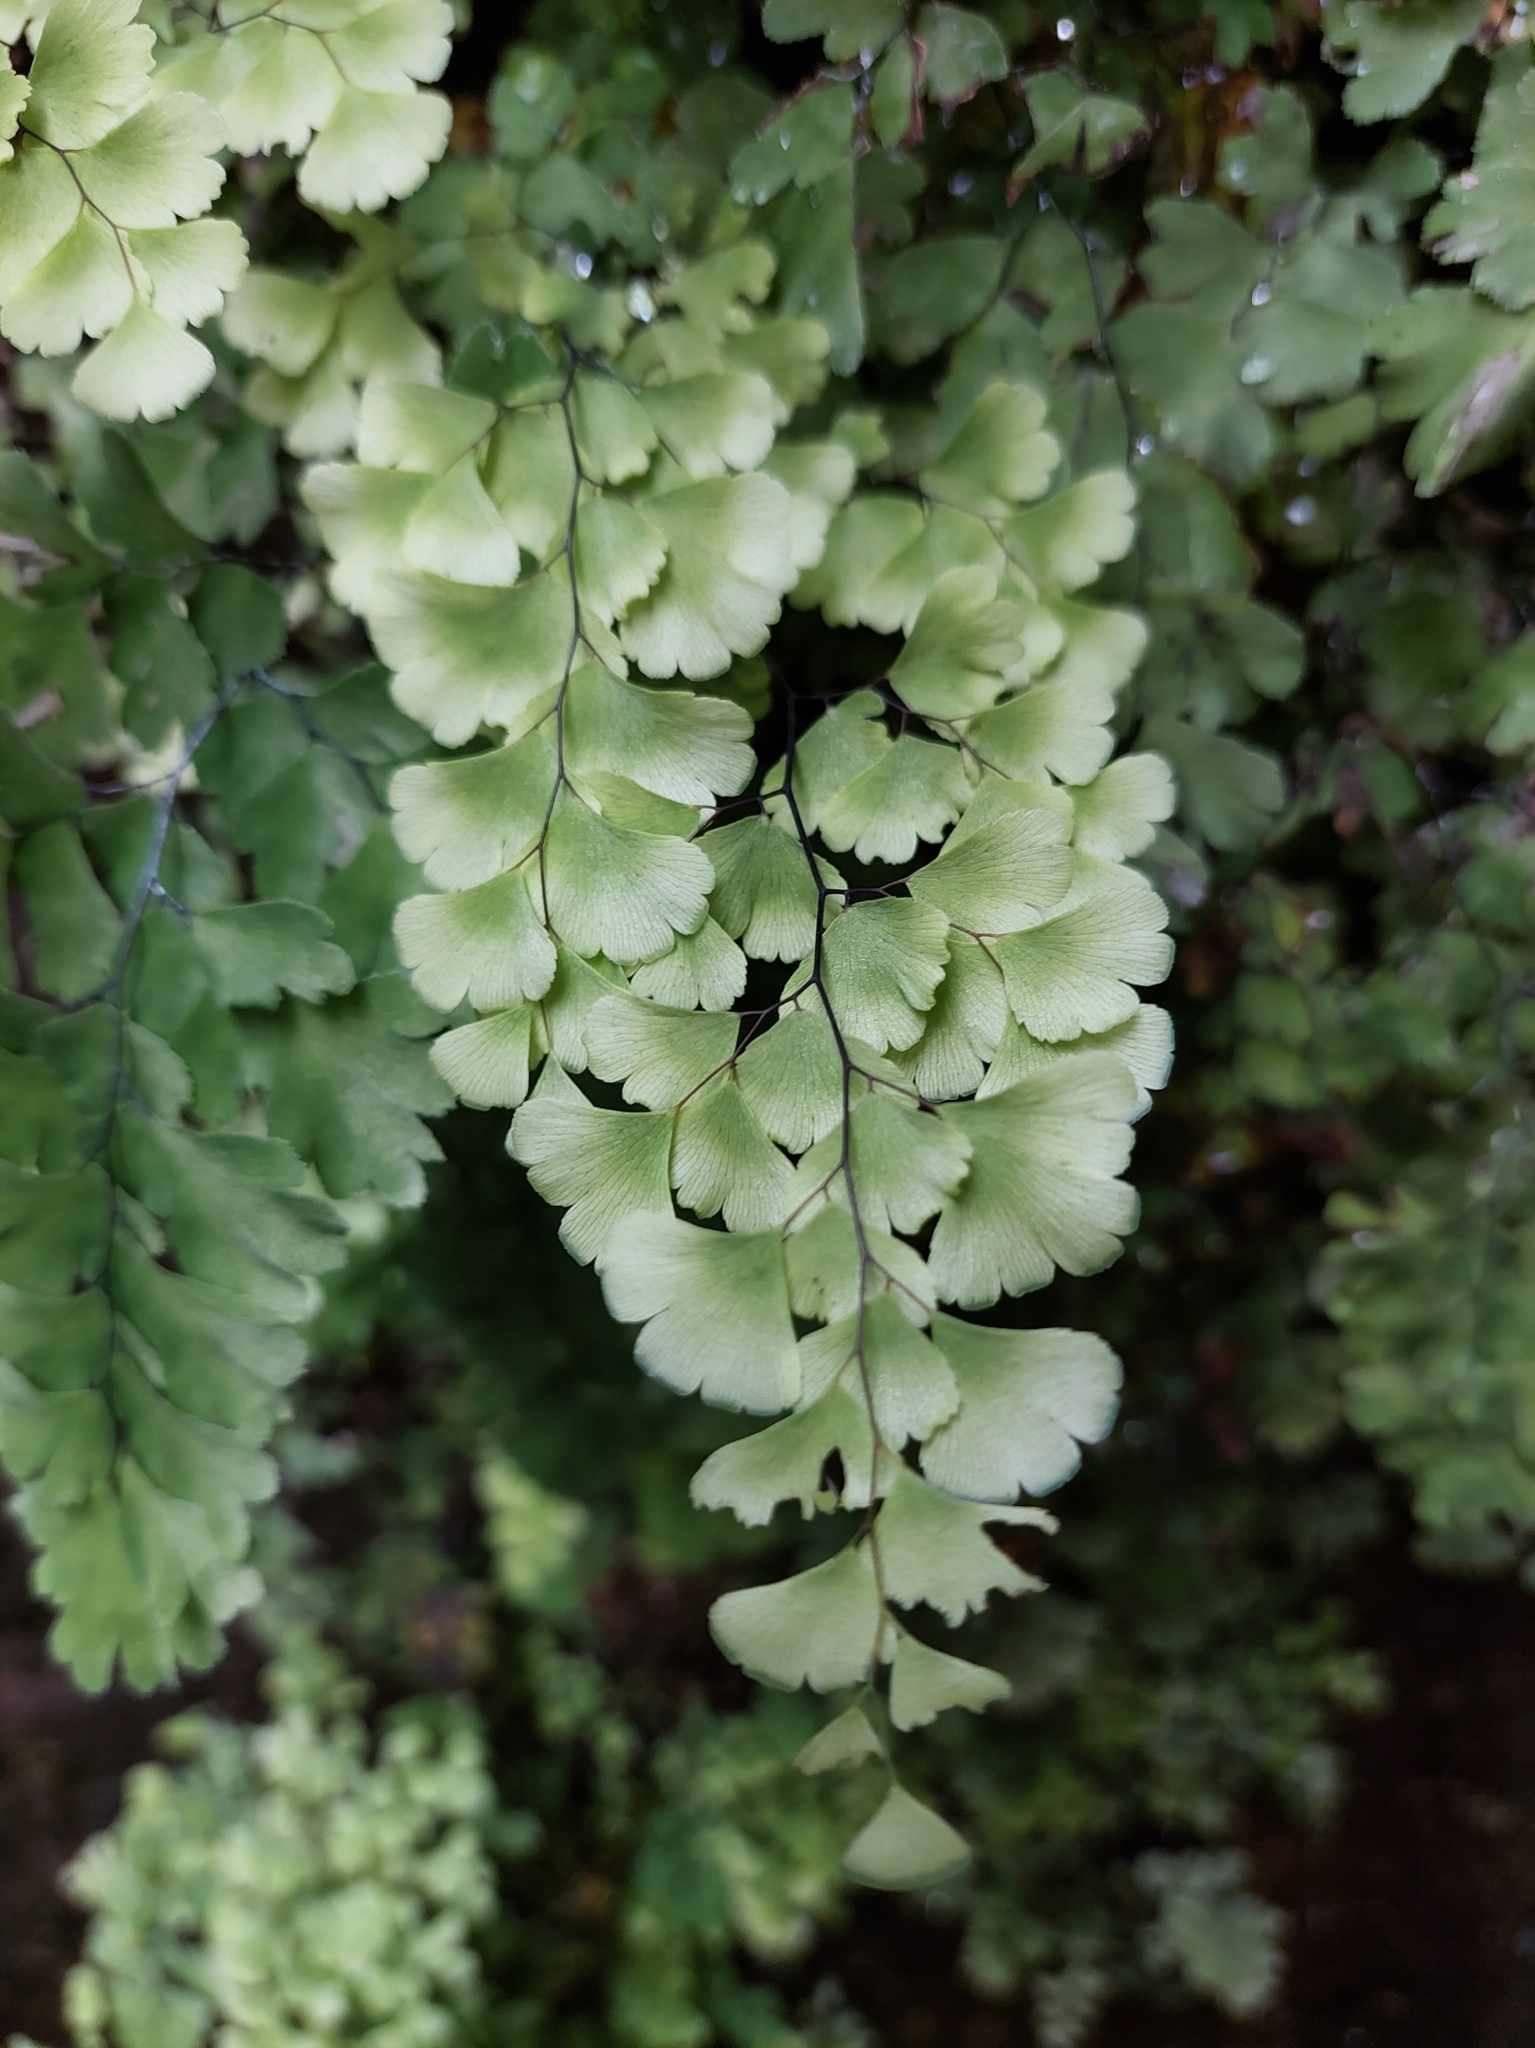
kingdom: Plantae
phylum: Tracheophyta
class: Polypodiopsida
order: Polypodiales
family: Pteridaceae
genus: Adiantum
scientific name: Adiantum capillus-veneris
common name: Maidenhair fern
